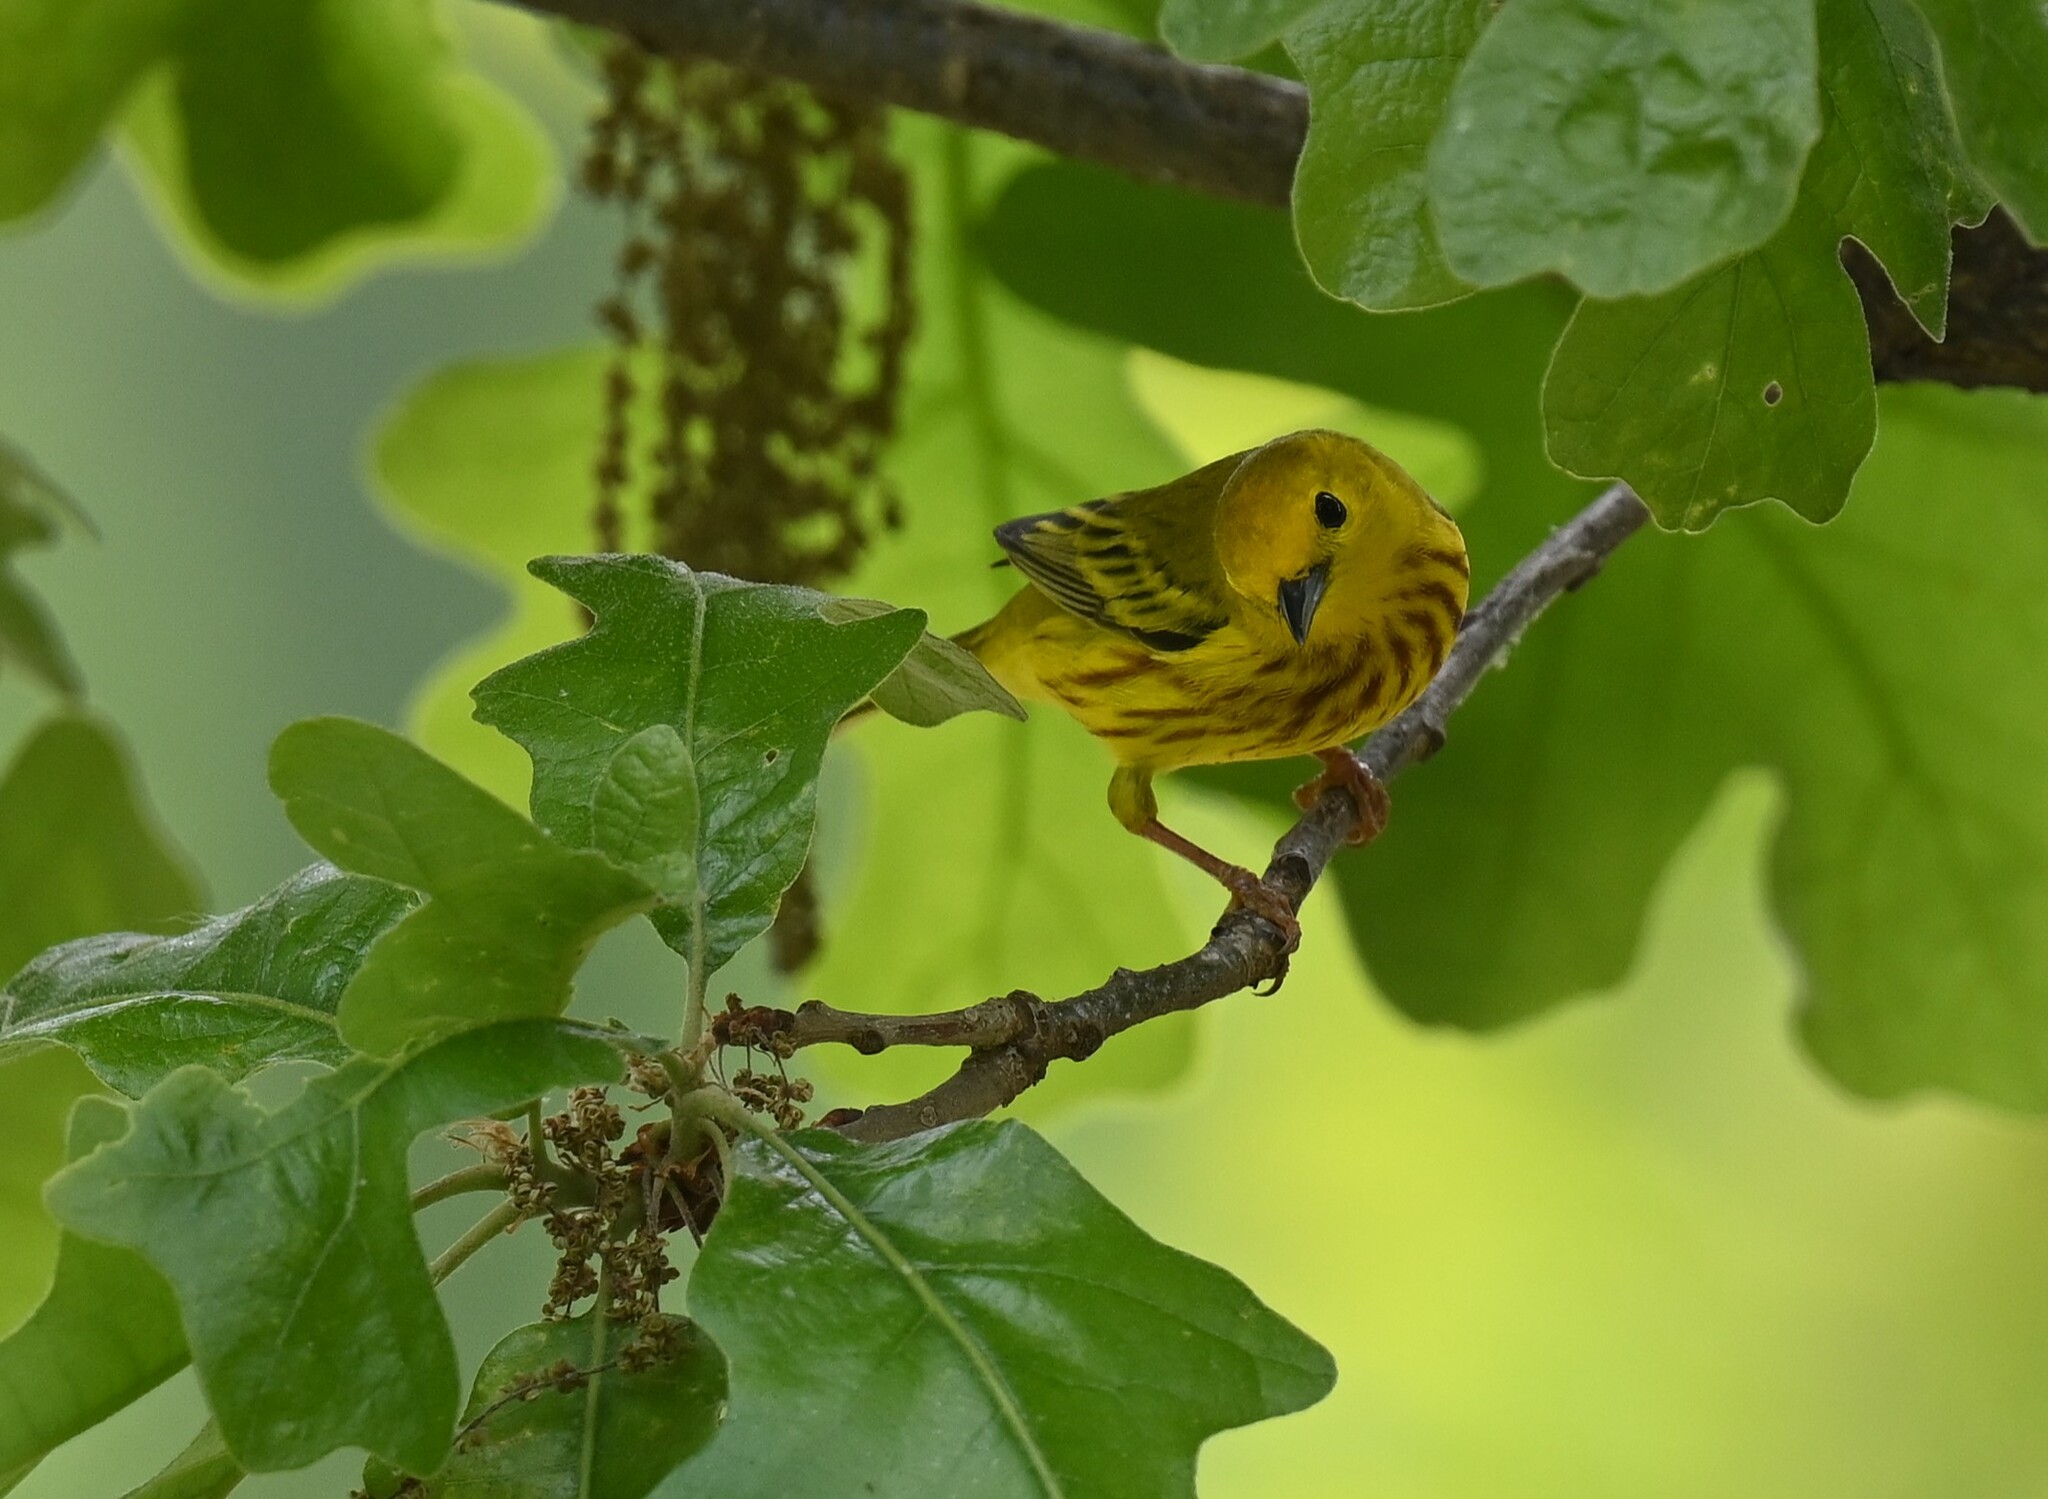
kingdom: Animalia
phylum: Chordata
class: Aves
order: Passeriformes
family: Parulidae
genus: Setophaga
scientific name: Setophaga petechia
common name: Yellow warbler
